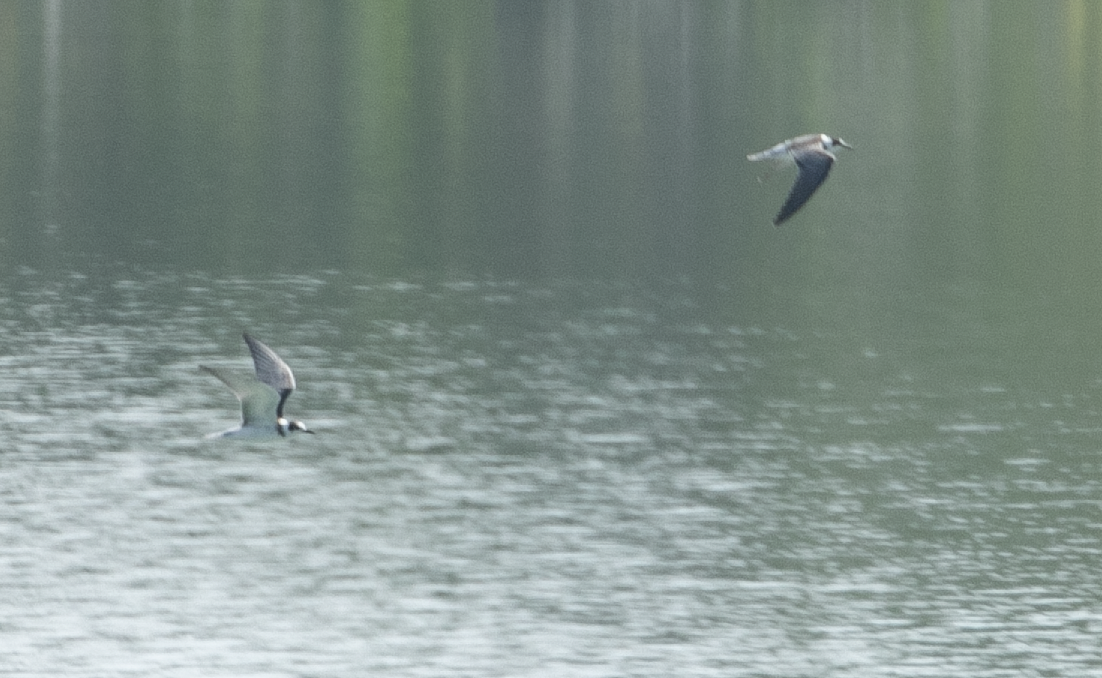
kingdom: Animalia
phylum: Chordata
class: Aves
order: Charadriiformes
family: Laridae
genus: Chlidonias
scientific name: Chlidonias niger
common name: Black tern
